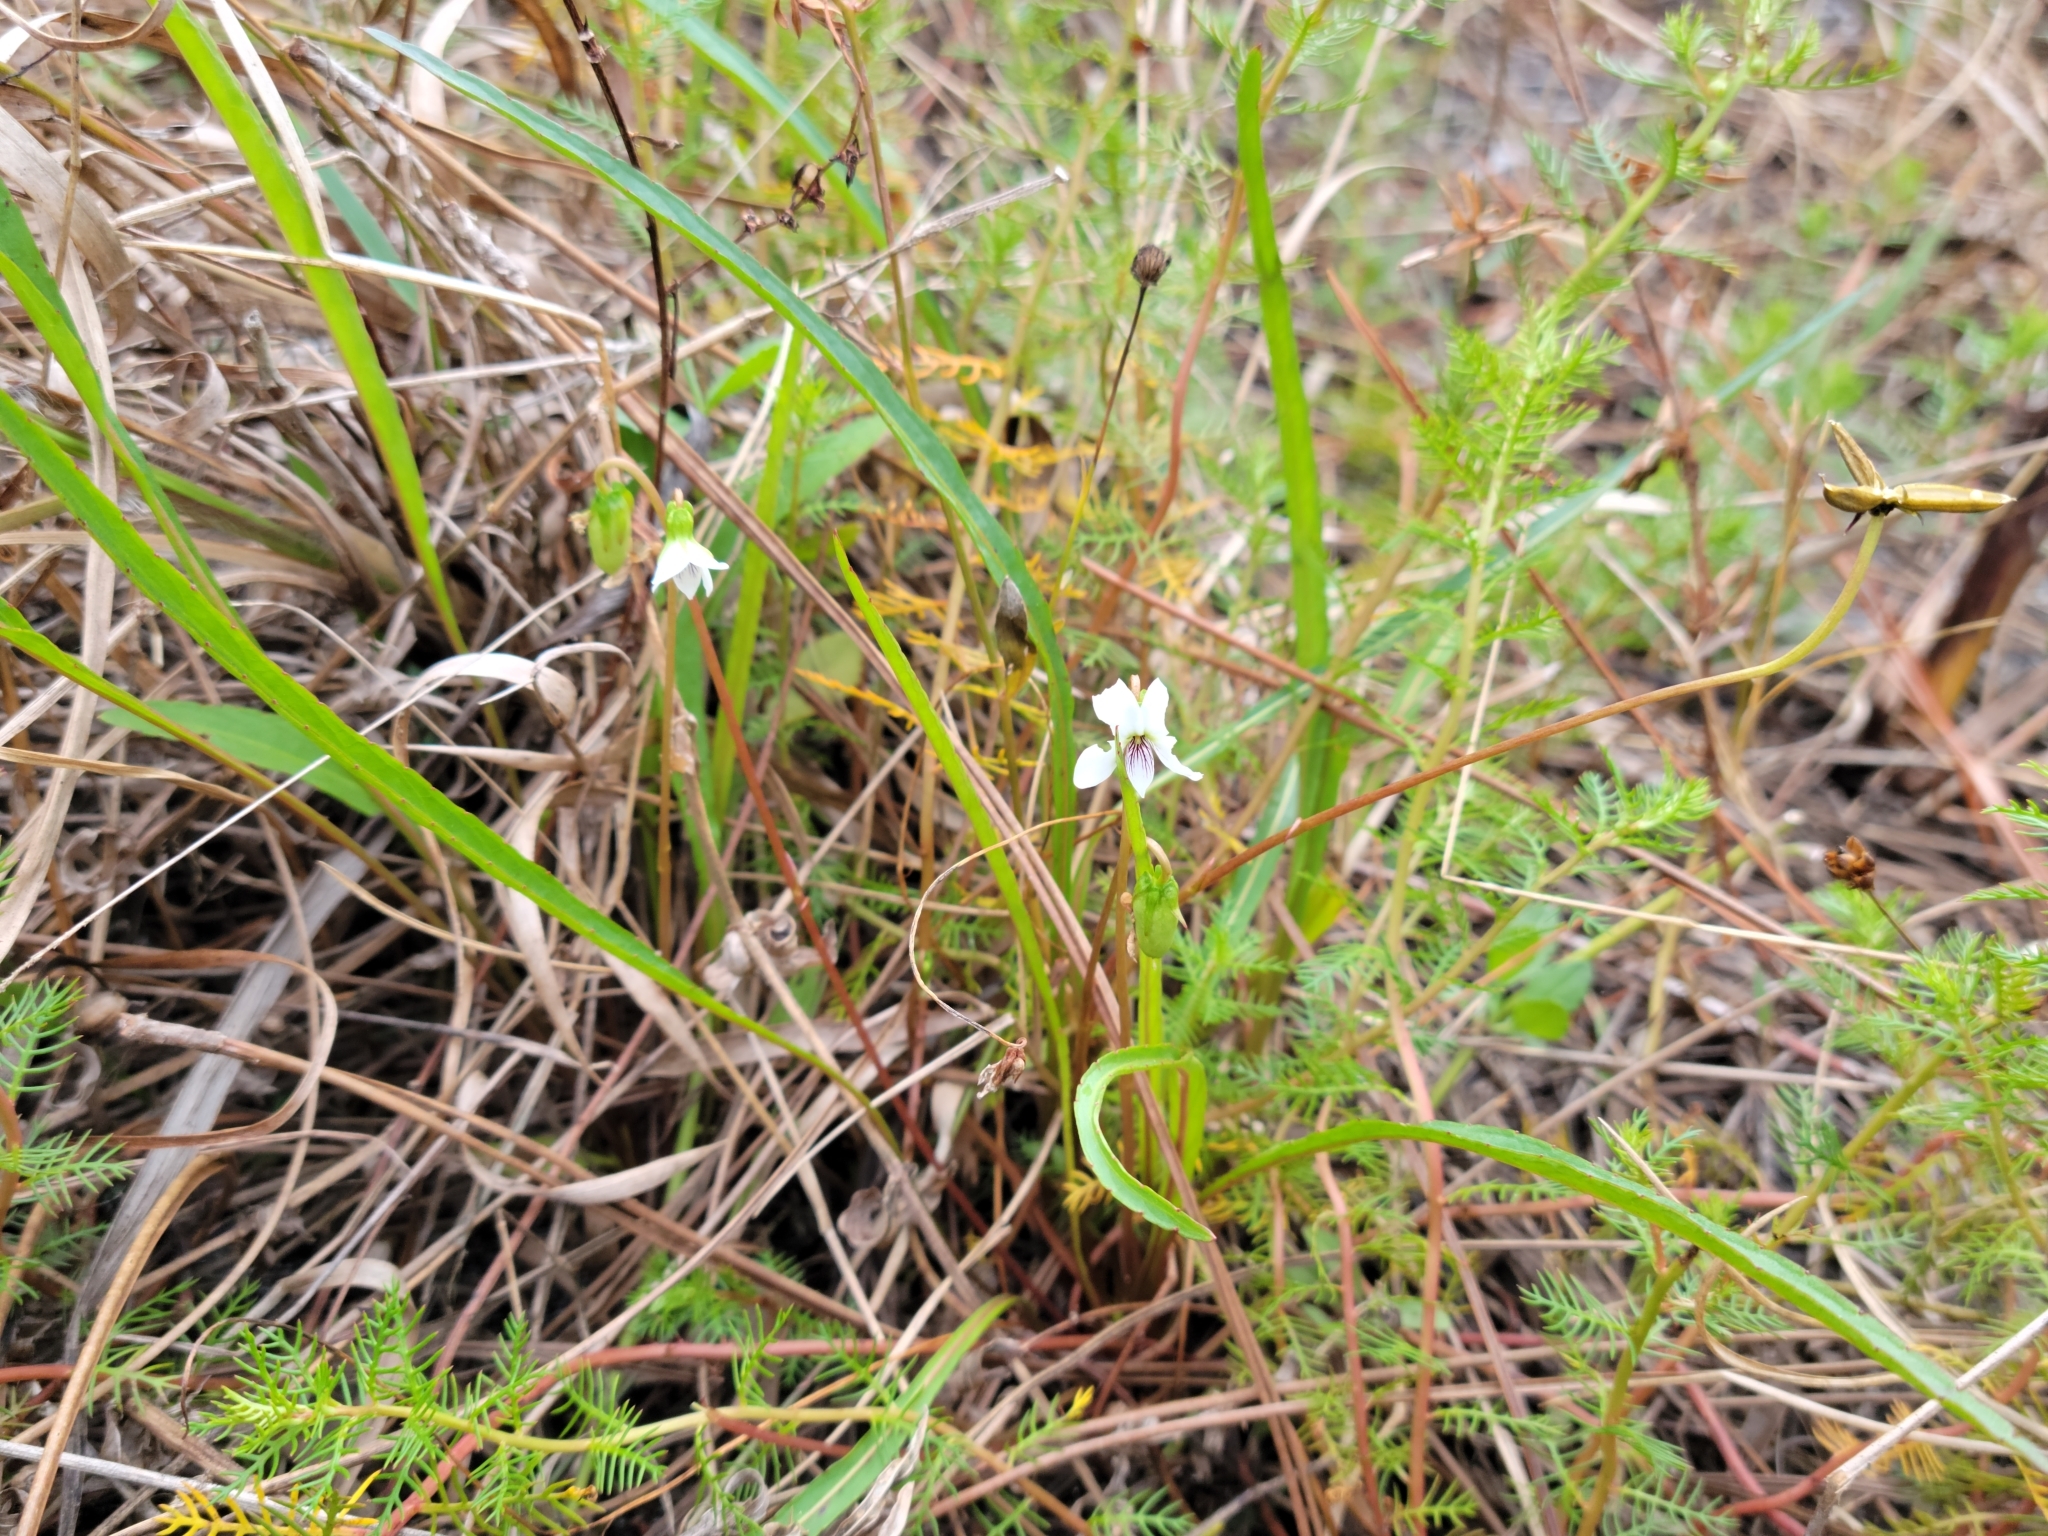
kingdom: Plantae
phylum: Tracheophyta
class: Magnoliopsida
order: Malpighiales
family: Violaceae
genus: Viola
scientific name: Viola lanceolata
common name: Bog white violet
